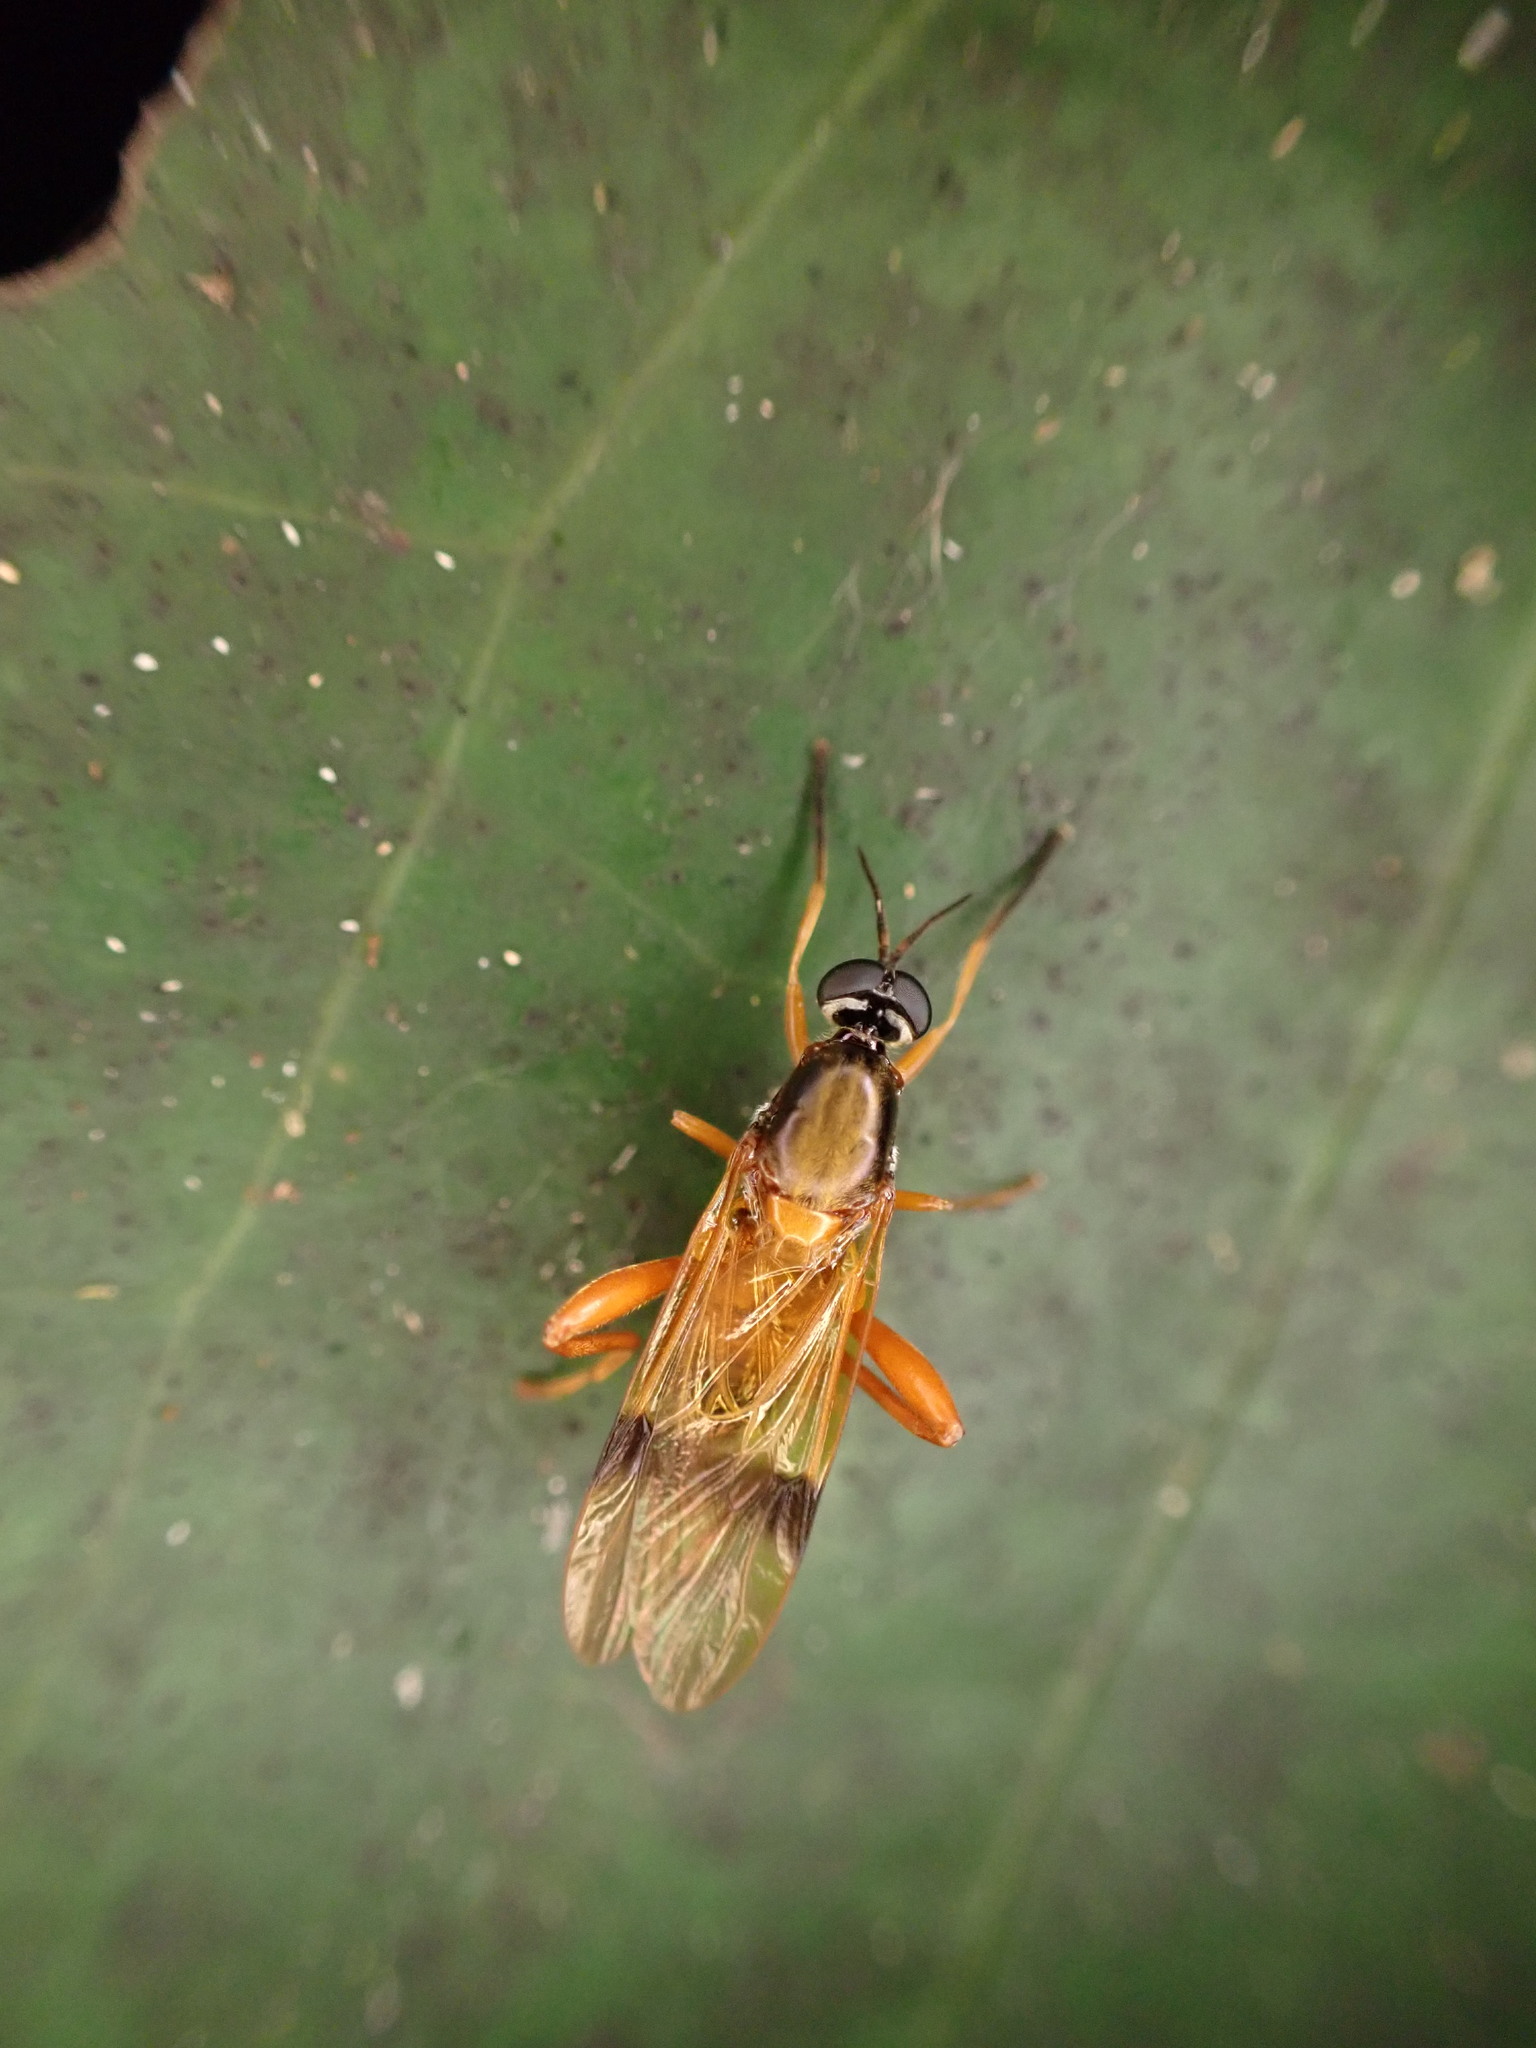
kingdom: Animalia
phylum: Arthropoda
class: Insecta
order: Diptera
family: Stratiomyidae
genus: Benhamyia
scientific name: Benhamyia apicalis
